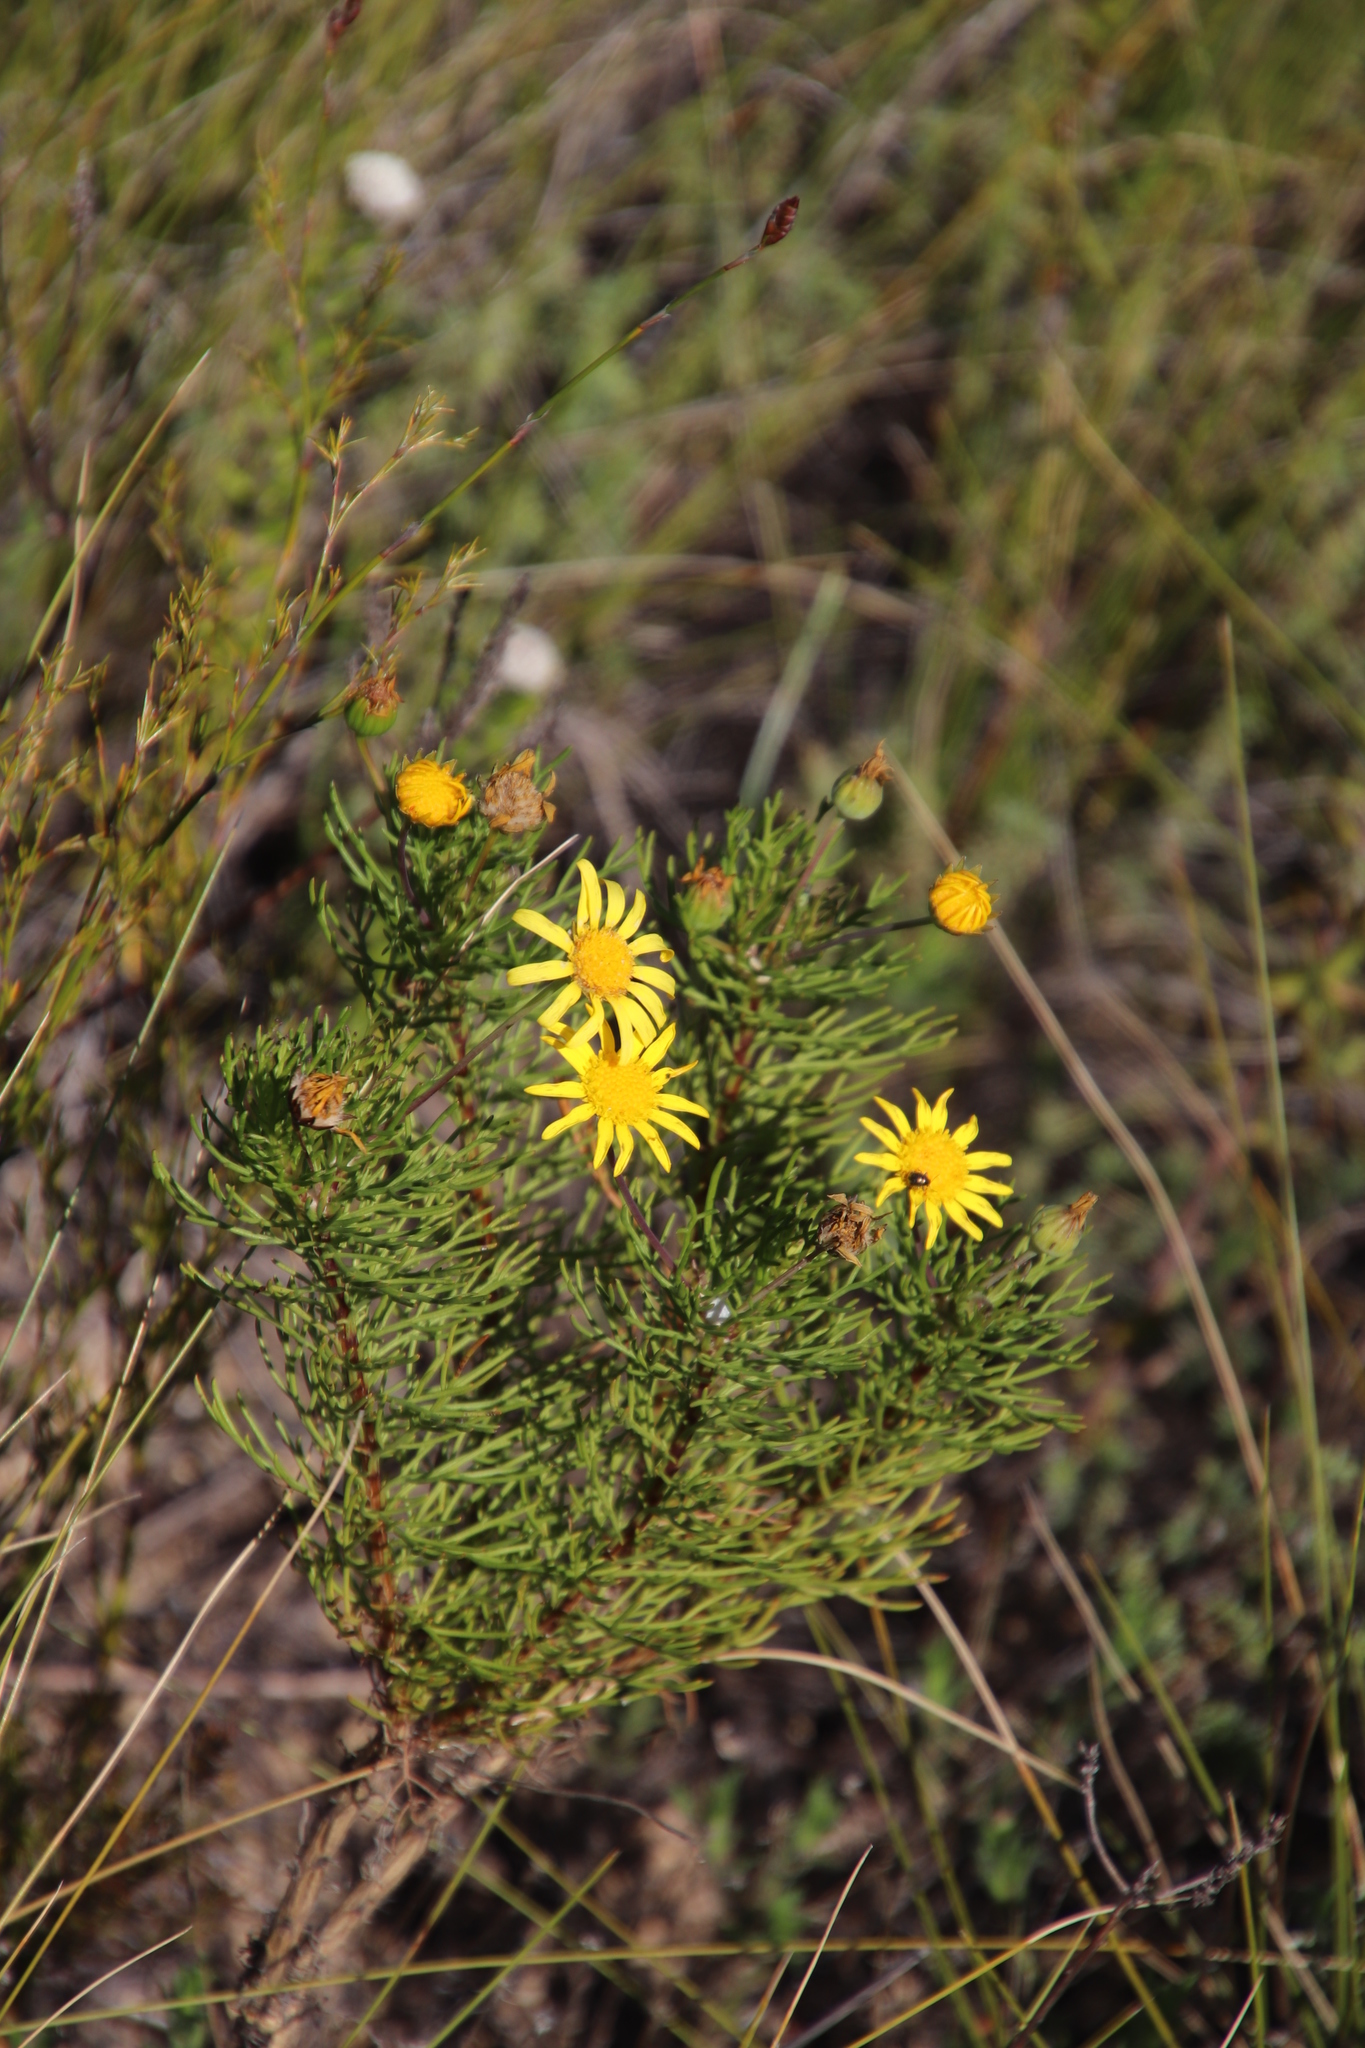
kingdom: Plantae
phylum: Tracheophyta
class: Magnoliopsida
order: Asterales
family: Asteraceae
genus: Euryops
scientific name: Euryops abrotanifolius
